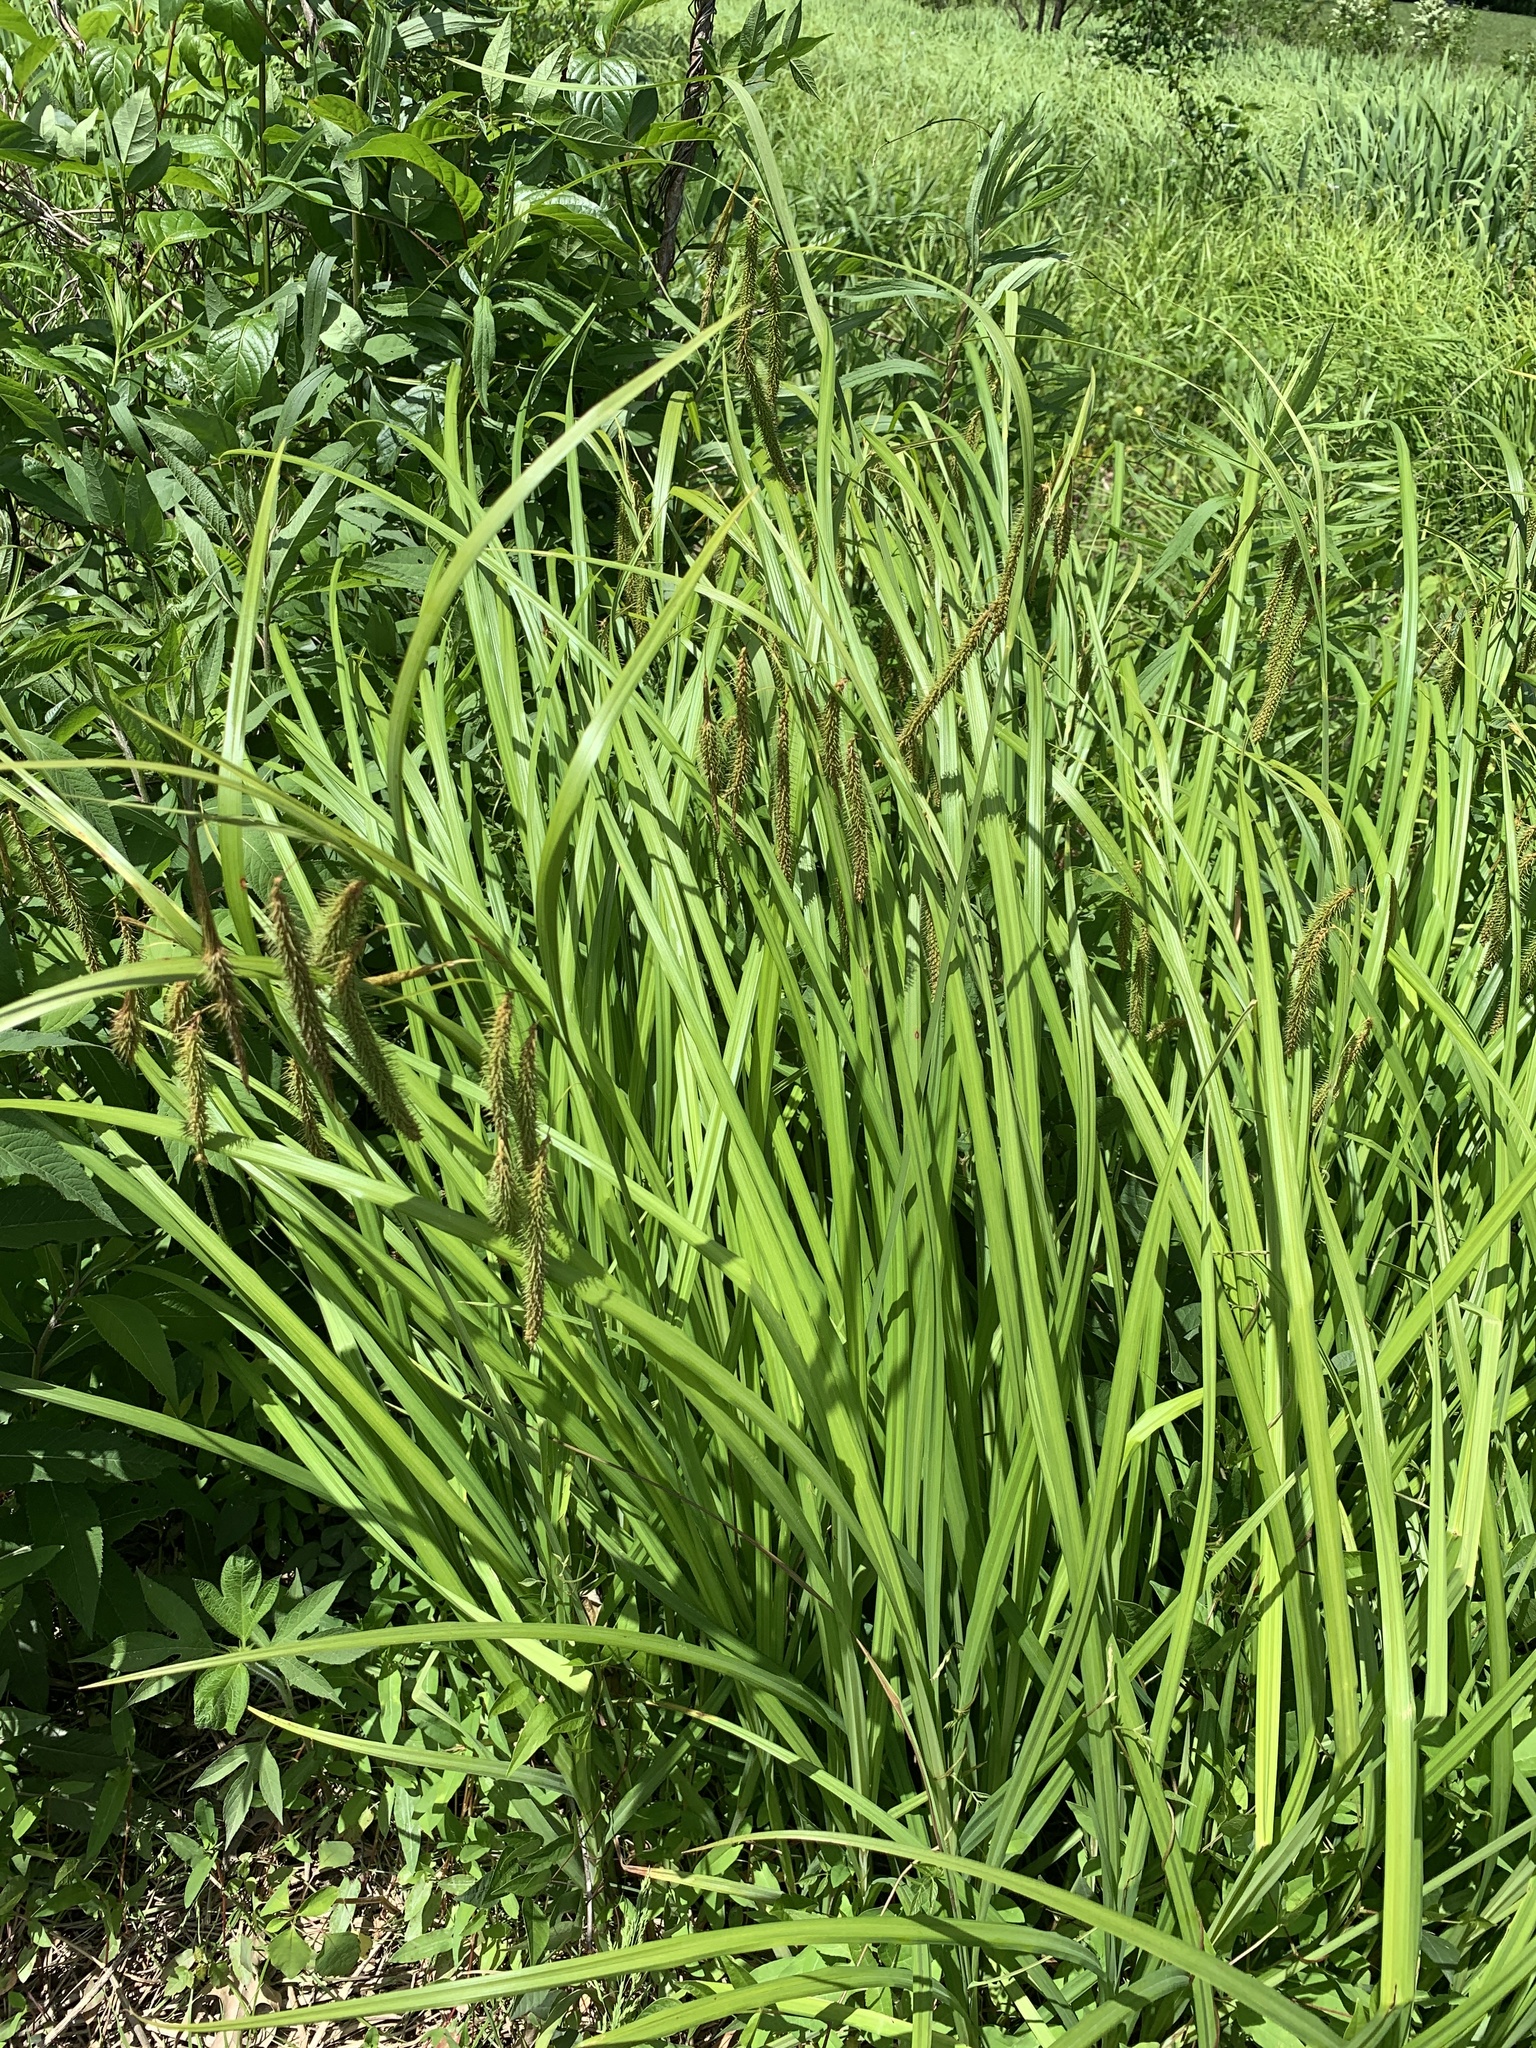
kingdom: Plantae
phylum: Tracheophyta
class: Liliopsida
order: Poales
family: Cyperaceae
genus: Carex
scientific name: Carex crinita
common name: Fringed sedge
